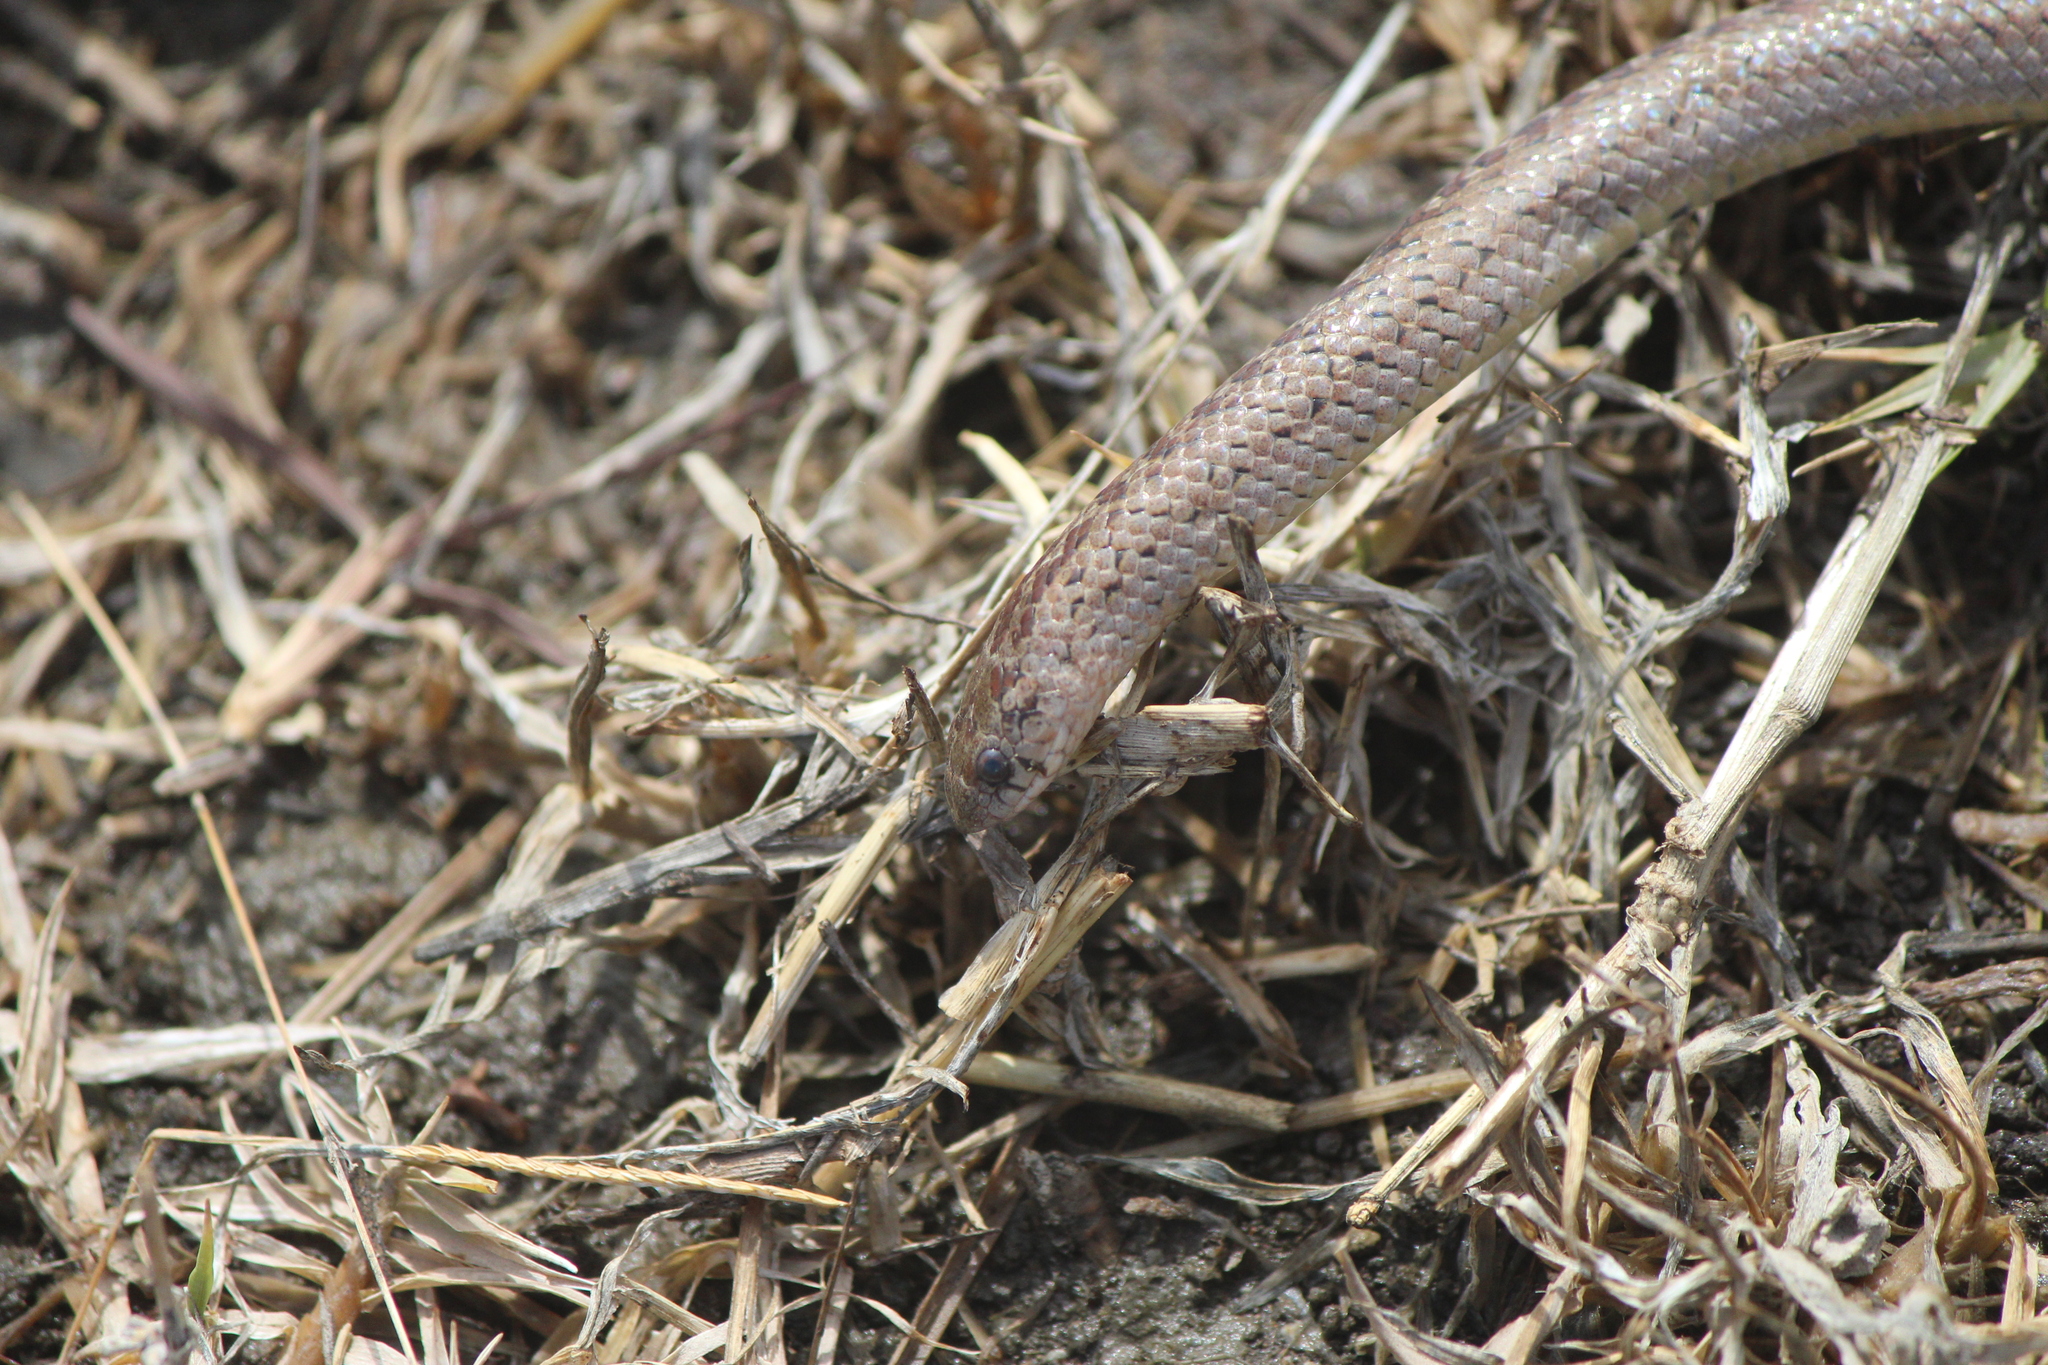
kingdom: Animalia
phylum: Chordata
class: Squamata
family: Colubridae
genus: Conopsis
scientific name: Conopsis nasus
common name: Largenose earth snake
